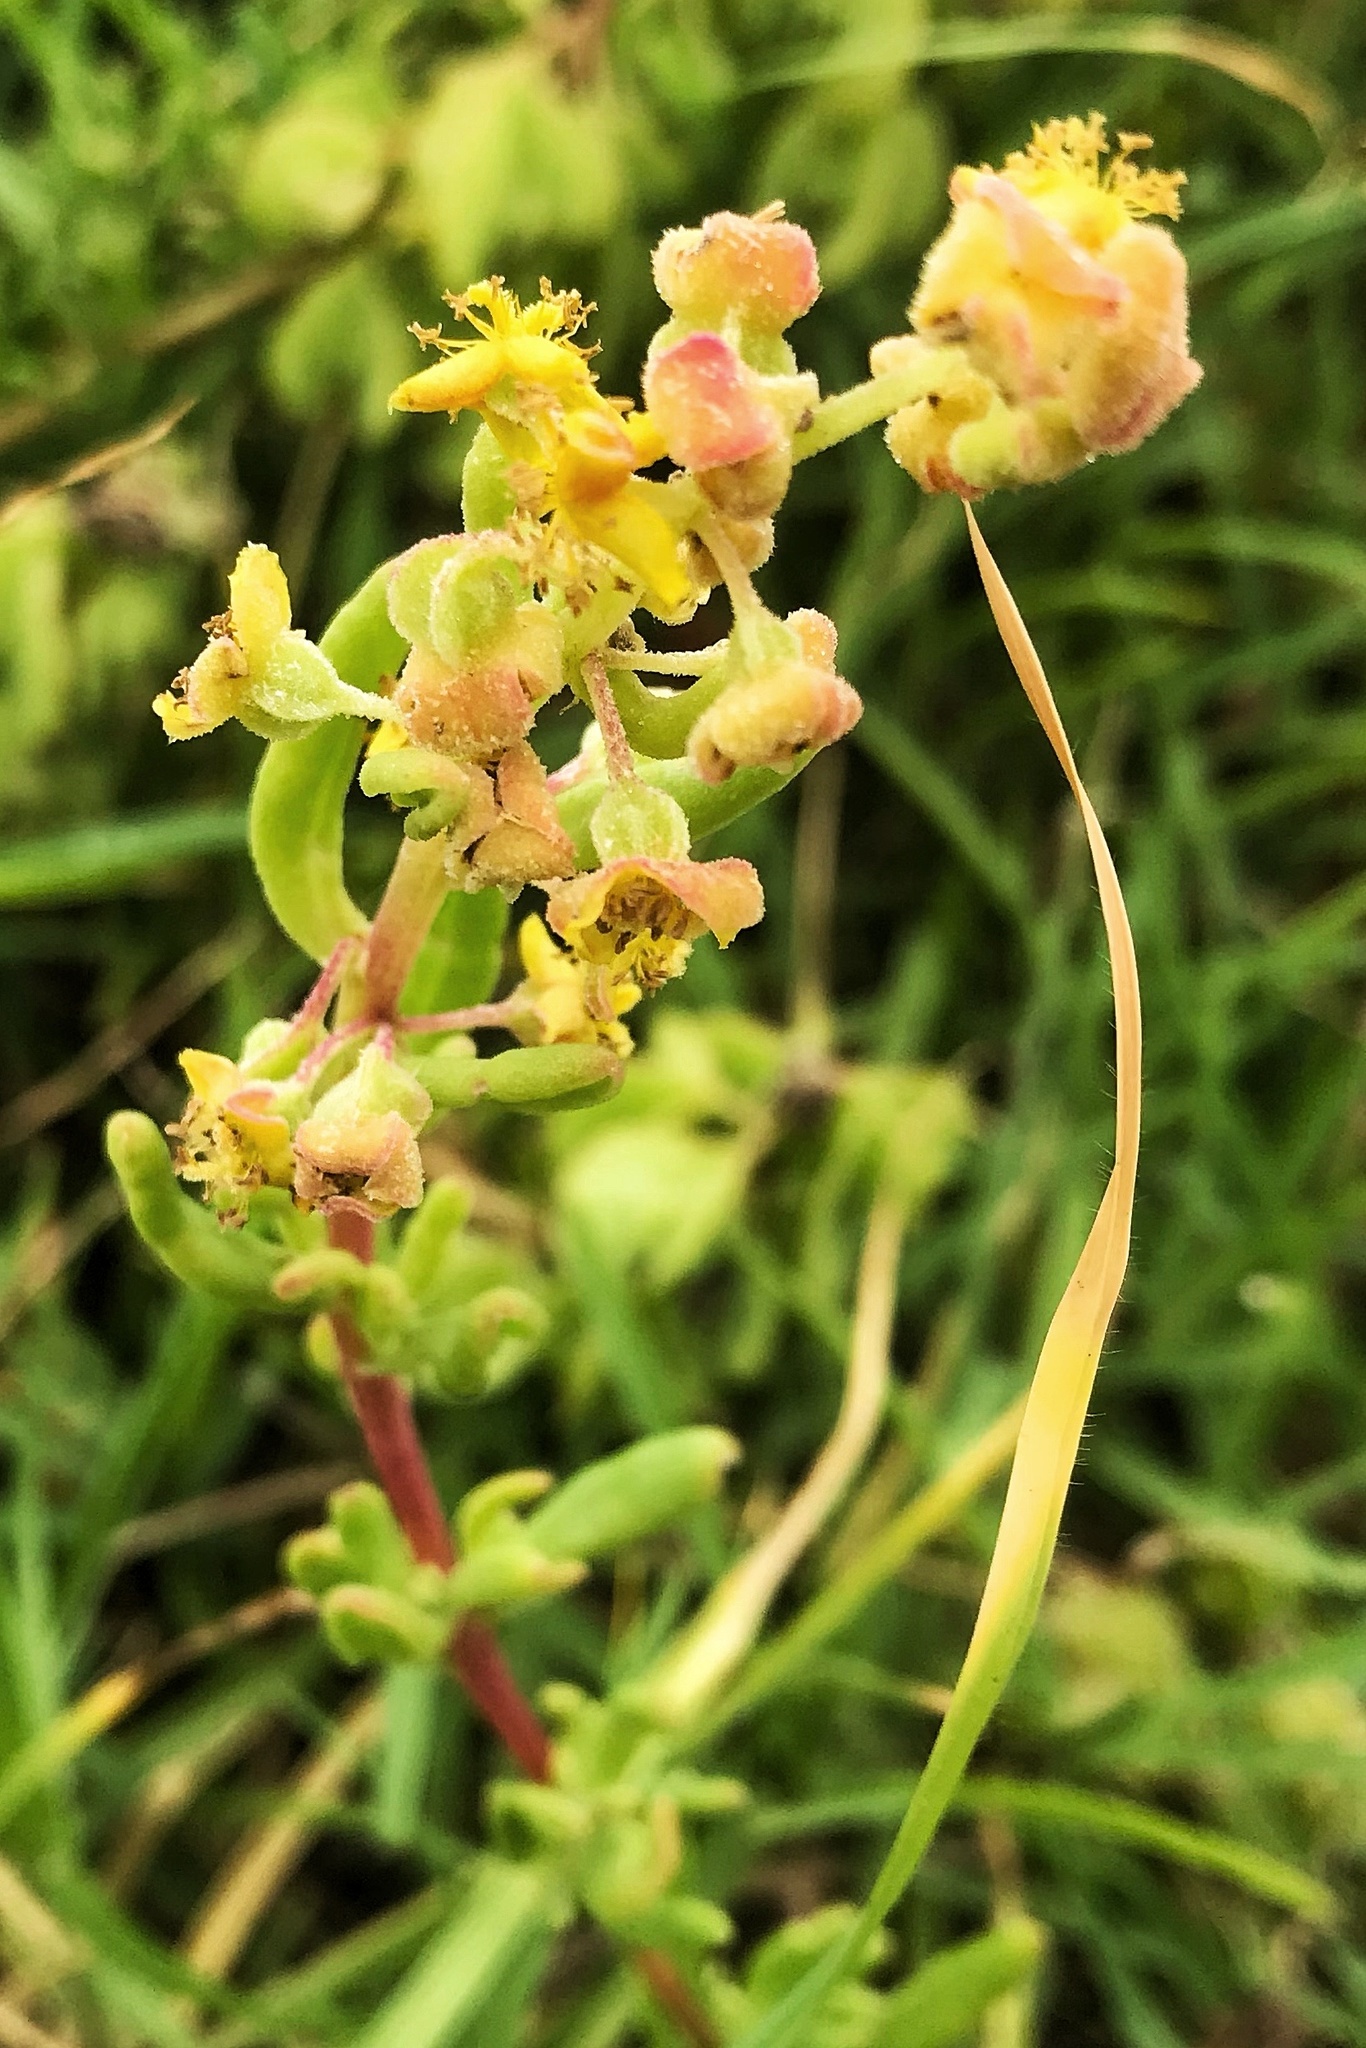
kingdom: Plantae
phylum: Tracheophyta
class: Magnoliopsida
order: Caryophyllales
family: Aizoaceae
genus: Tetragonia
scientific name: Tetragonia fruticosa
